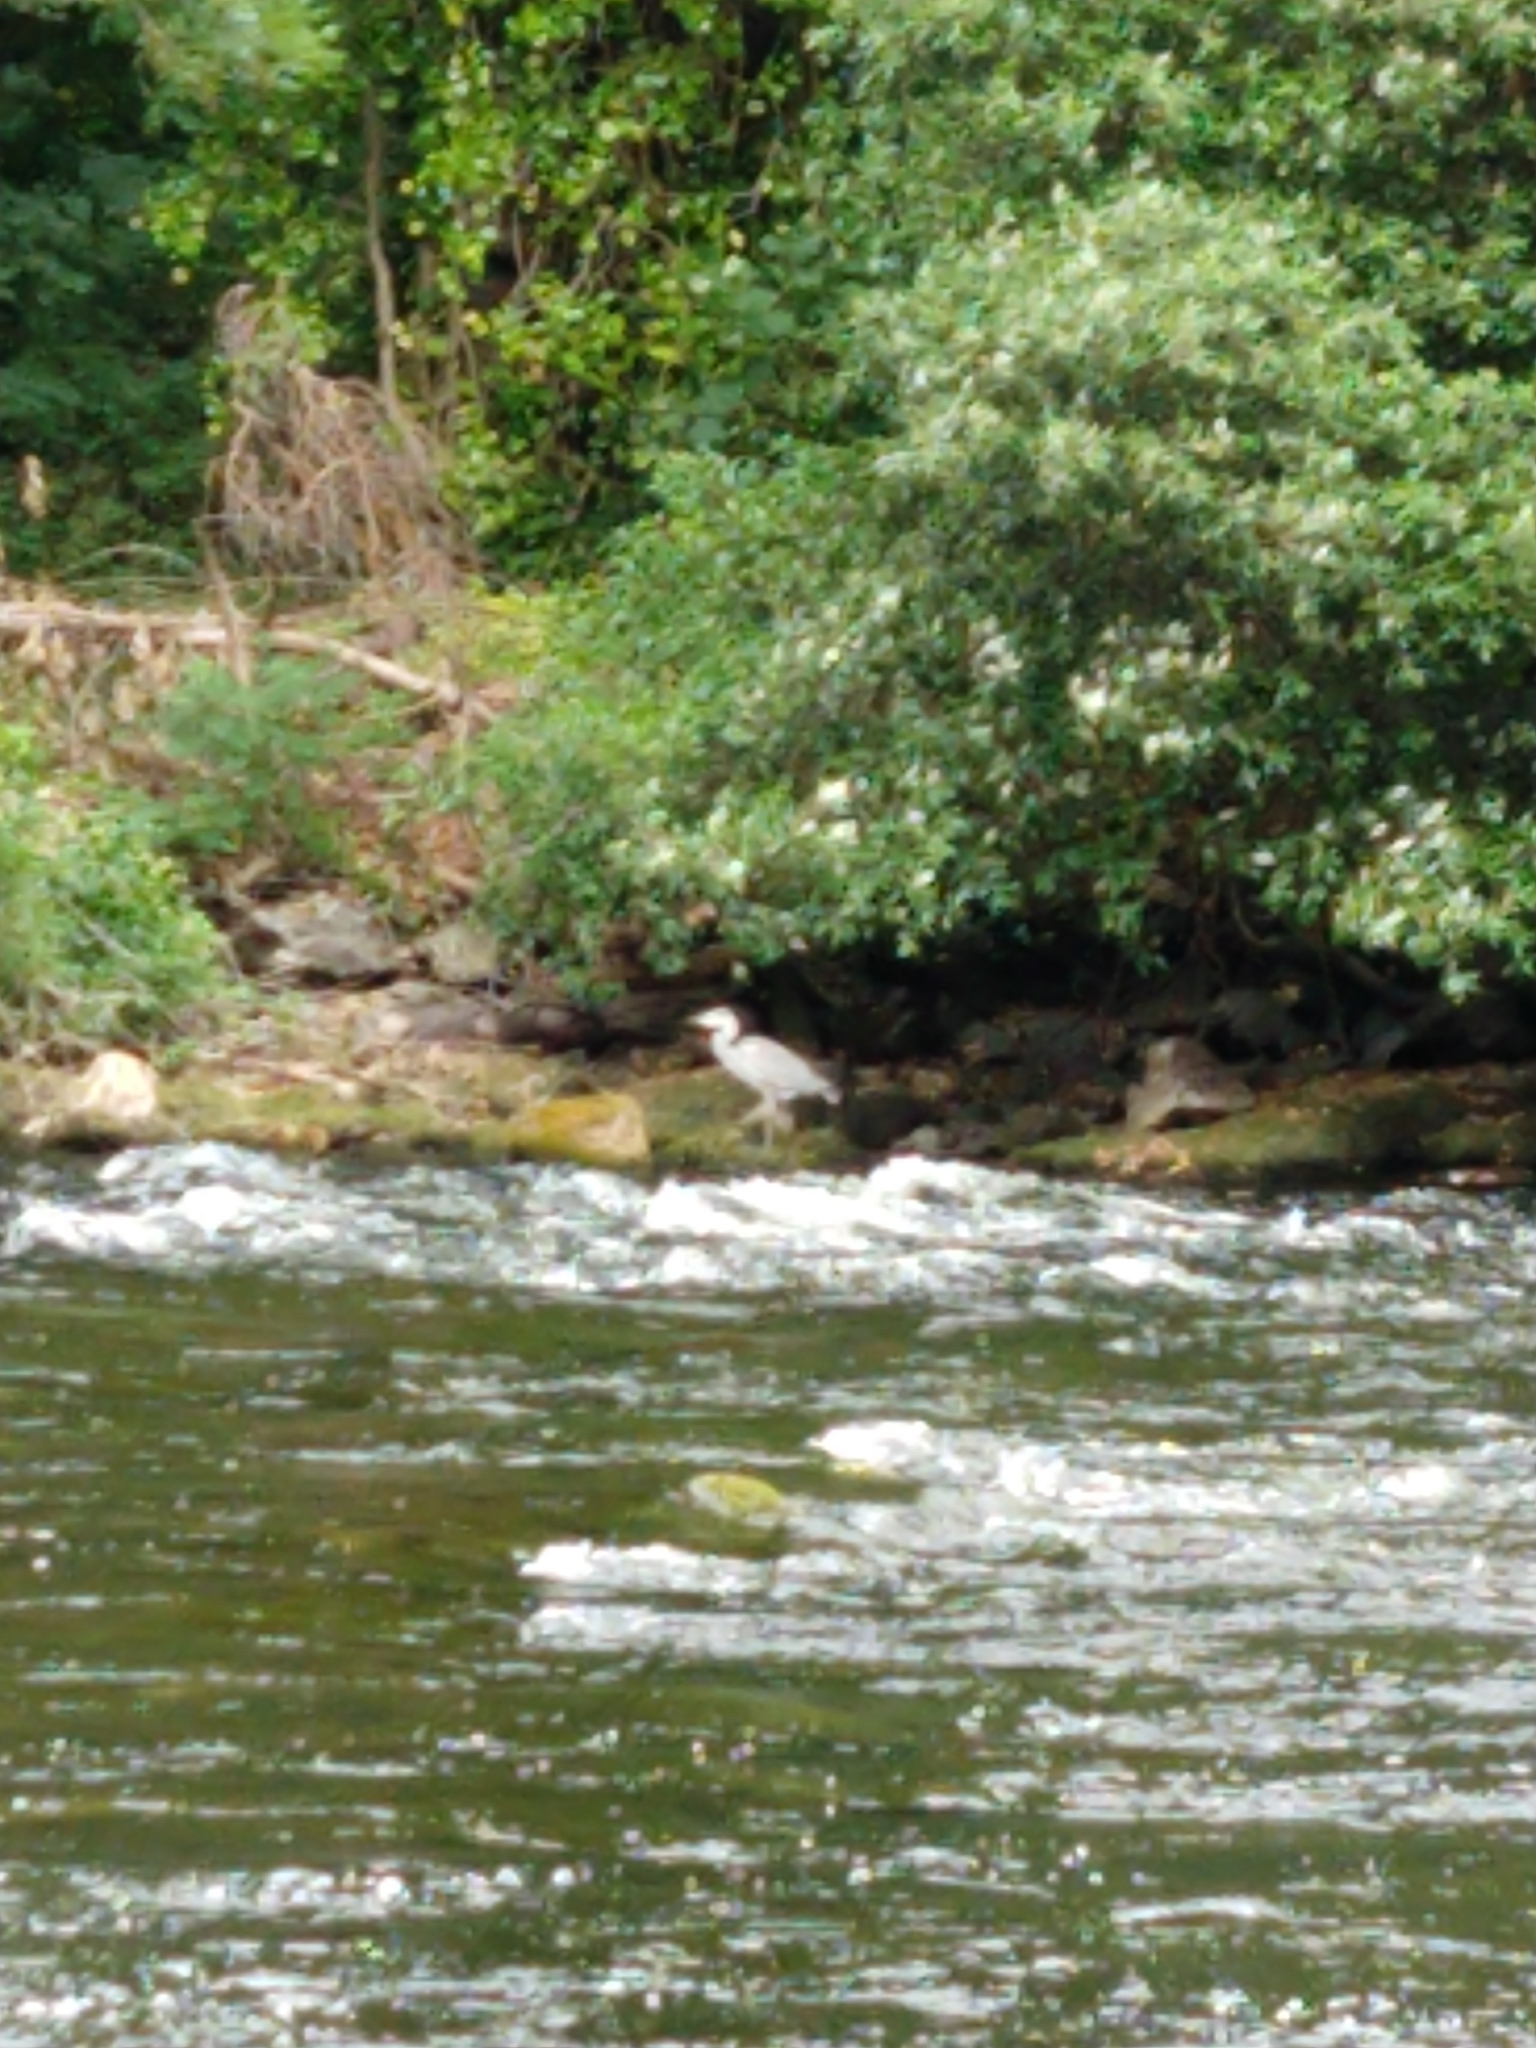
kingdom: Animalia
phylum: Chordata
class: Aves
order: Pelecaniformes
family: Ardeidae
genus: Ardea
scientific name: Ardea cinerea
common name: Grey heron
